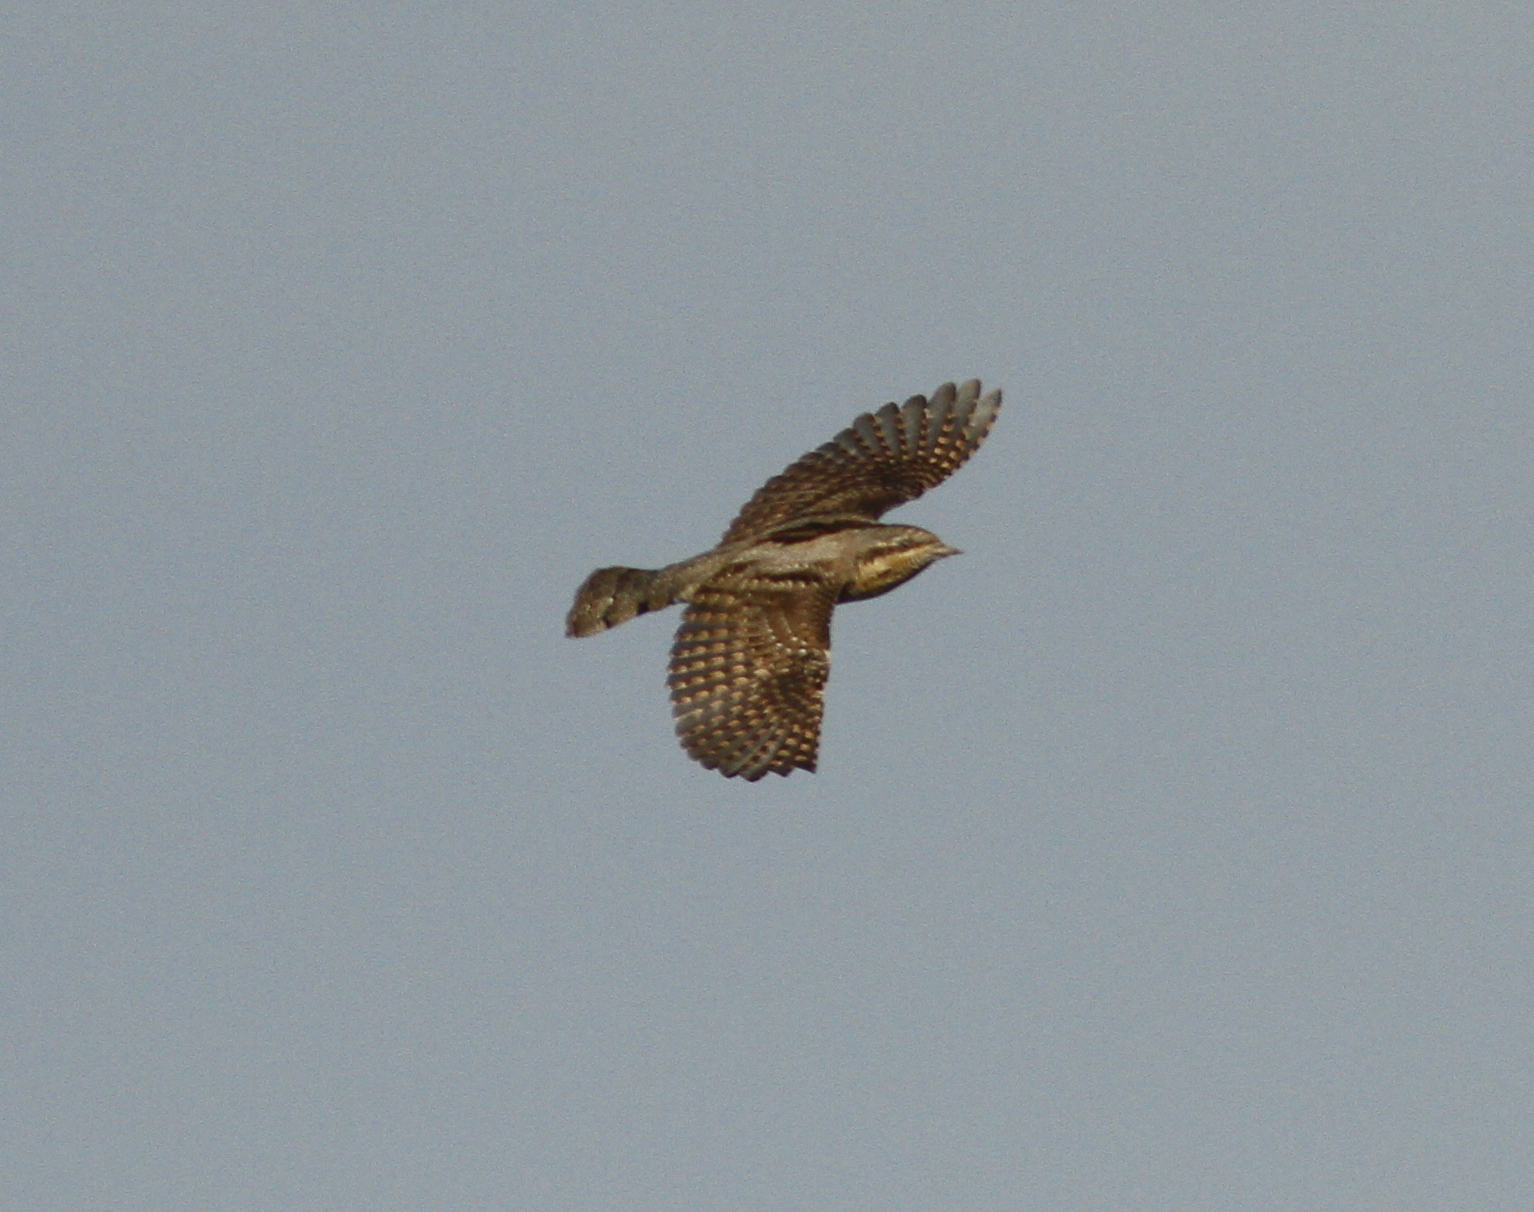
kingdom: Animalia
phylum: Chordata
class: Aves
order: Piciformes
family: Picidae
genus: Jynx
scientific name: Jynx torquilla
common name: Eurasian wryneck
